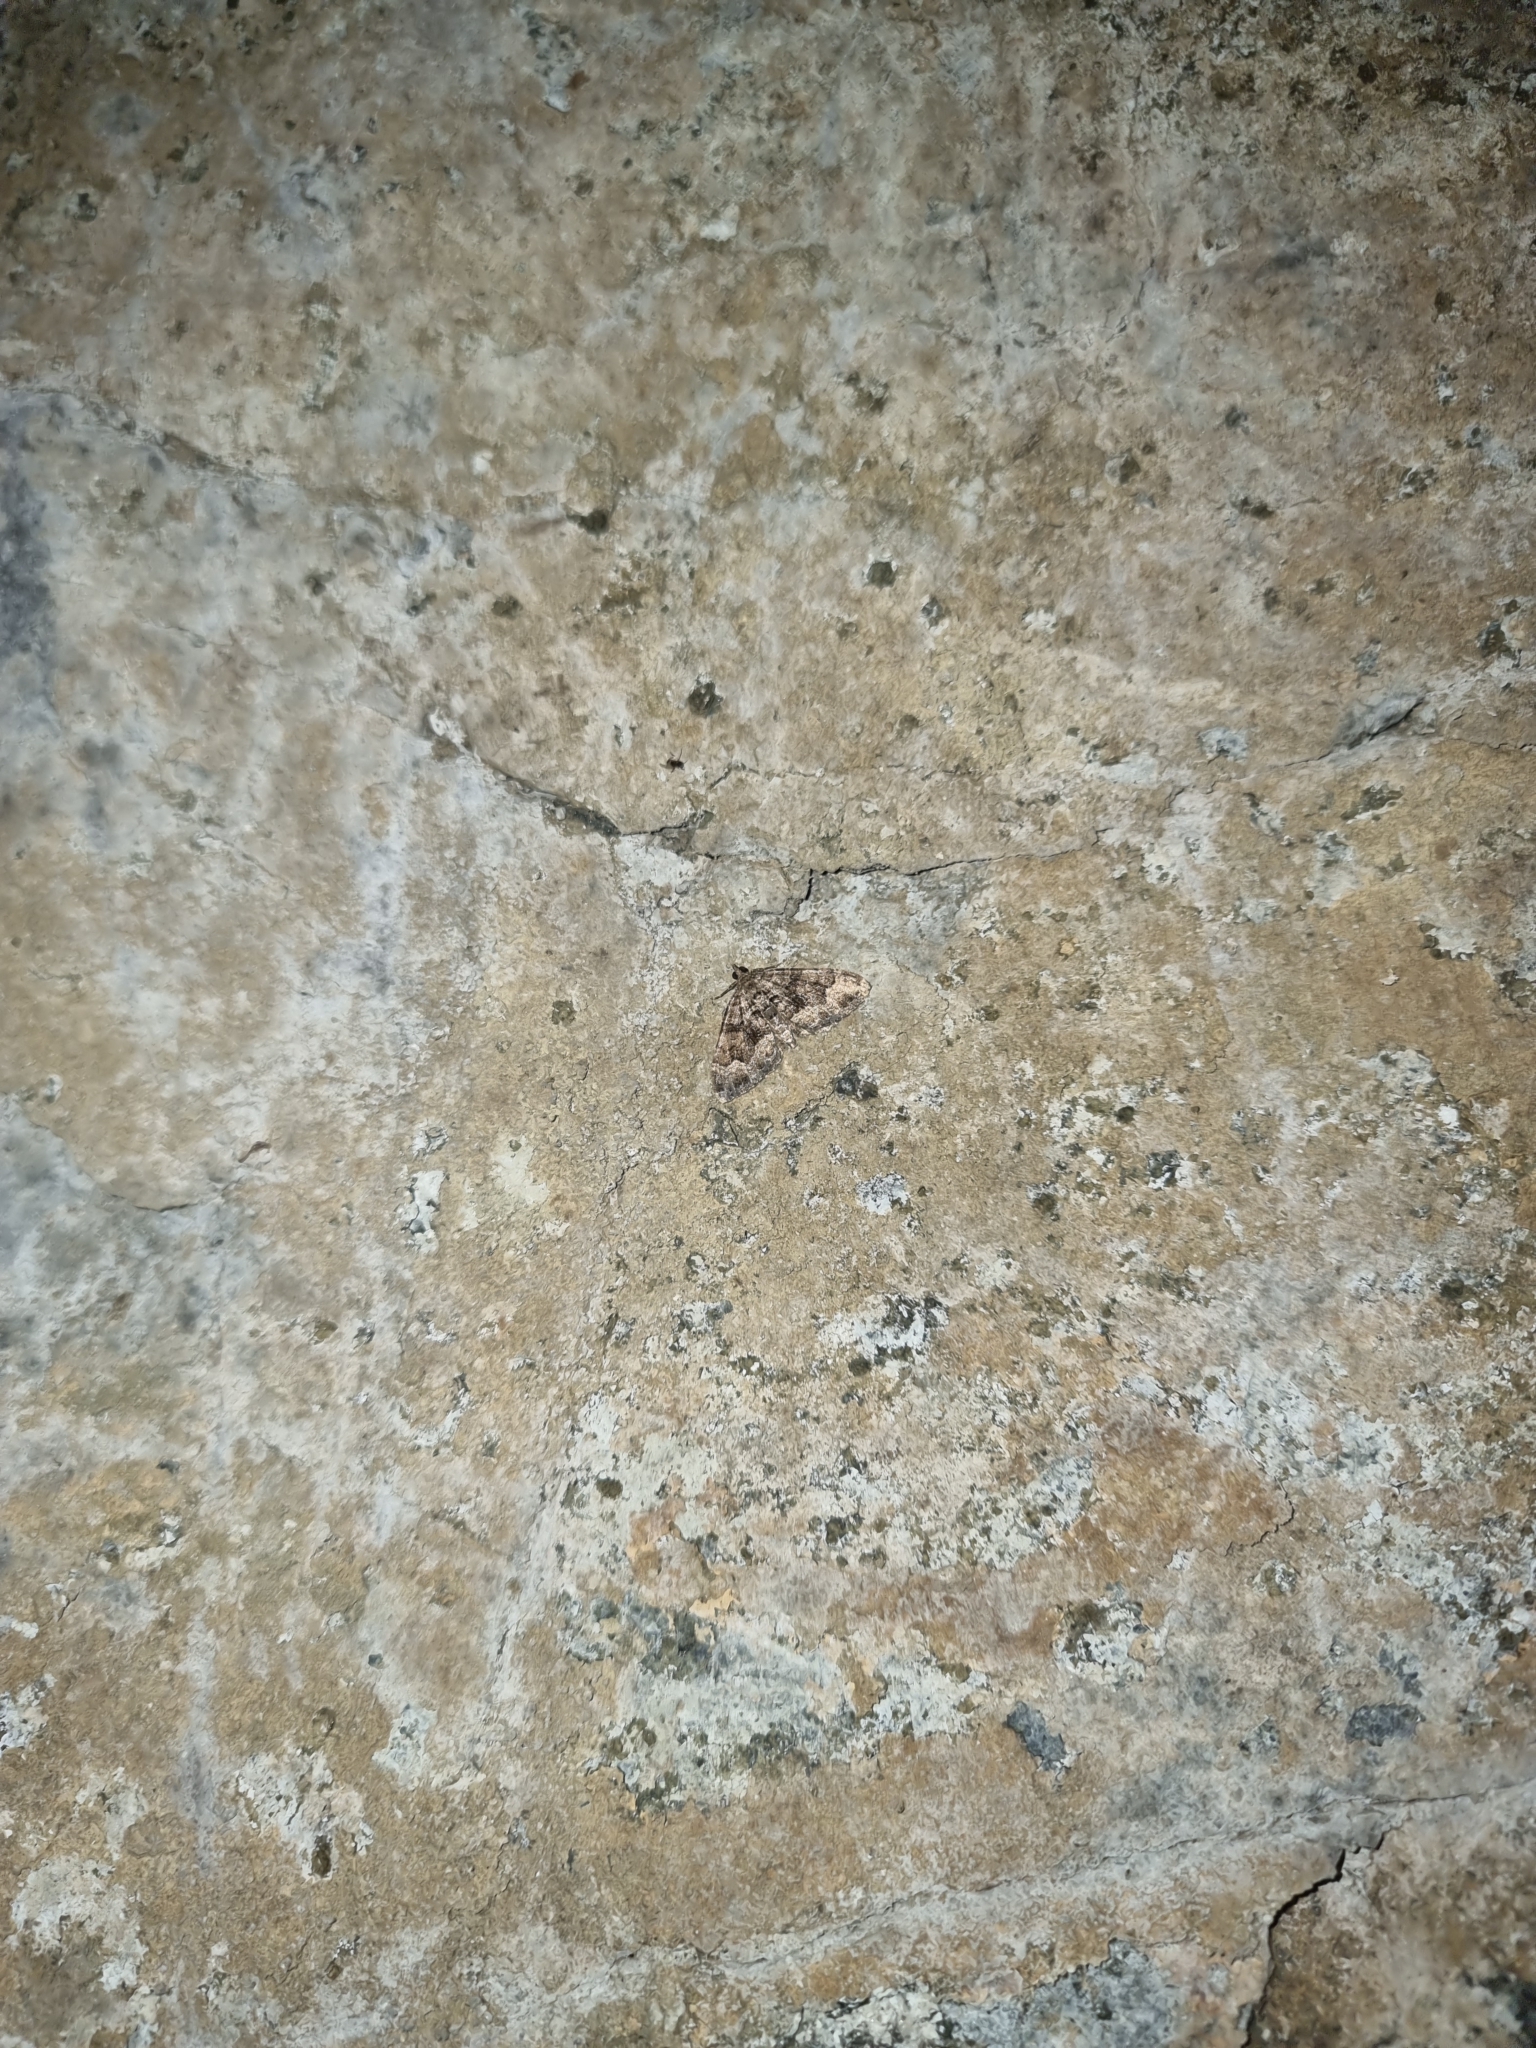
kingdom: Animalia
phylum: Arthropoda
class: Insecta
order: Lepidoptera
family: Geometridae
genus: Xanthorhoe
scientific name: Xanthorhoe rupicola
